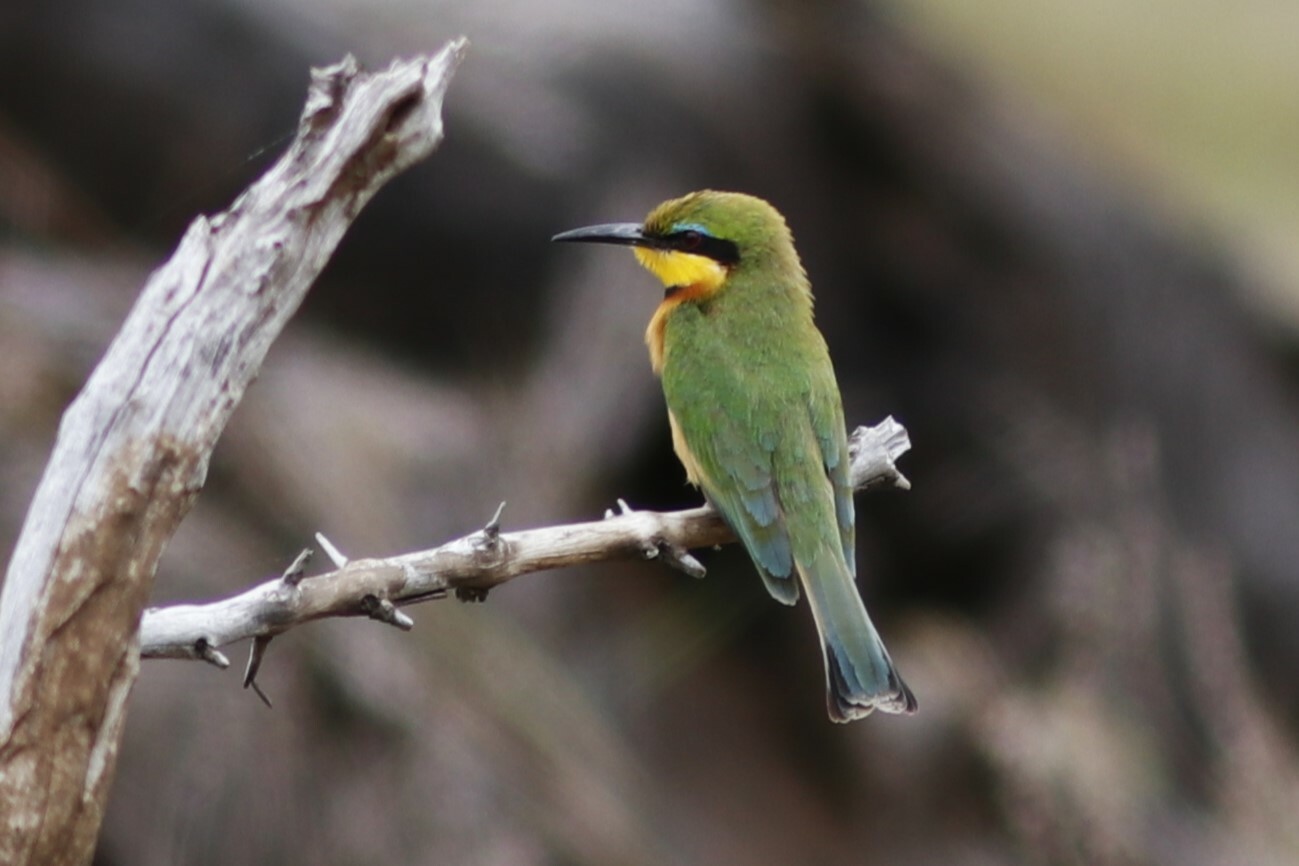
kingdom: Animalia
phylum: Chordata
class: Aves
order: Coraciiformes
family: Meropidae
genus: Merops
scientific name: Merops pusillus
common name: Little bee-eater
